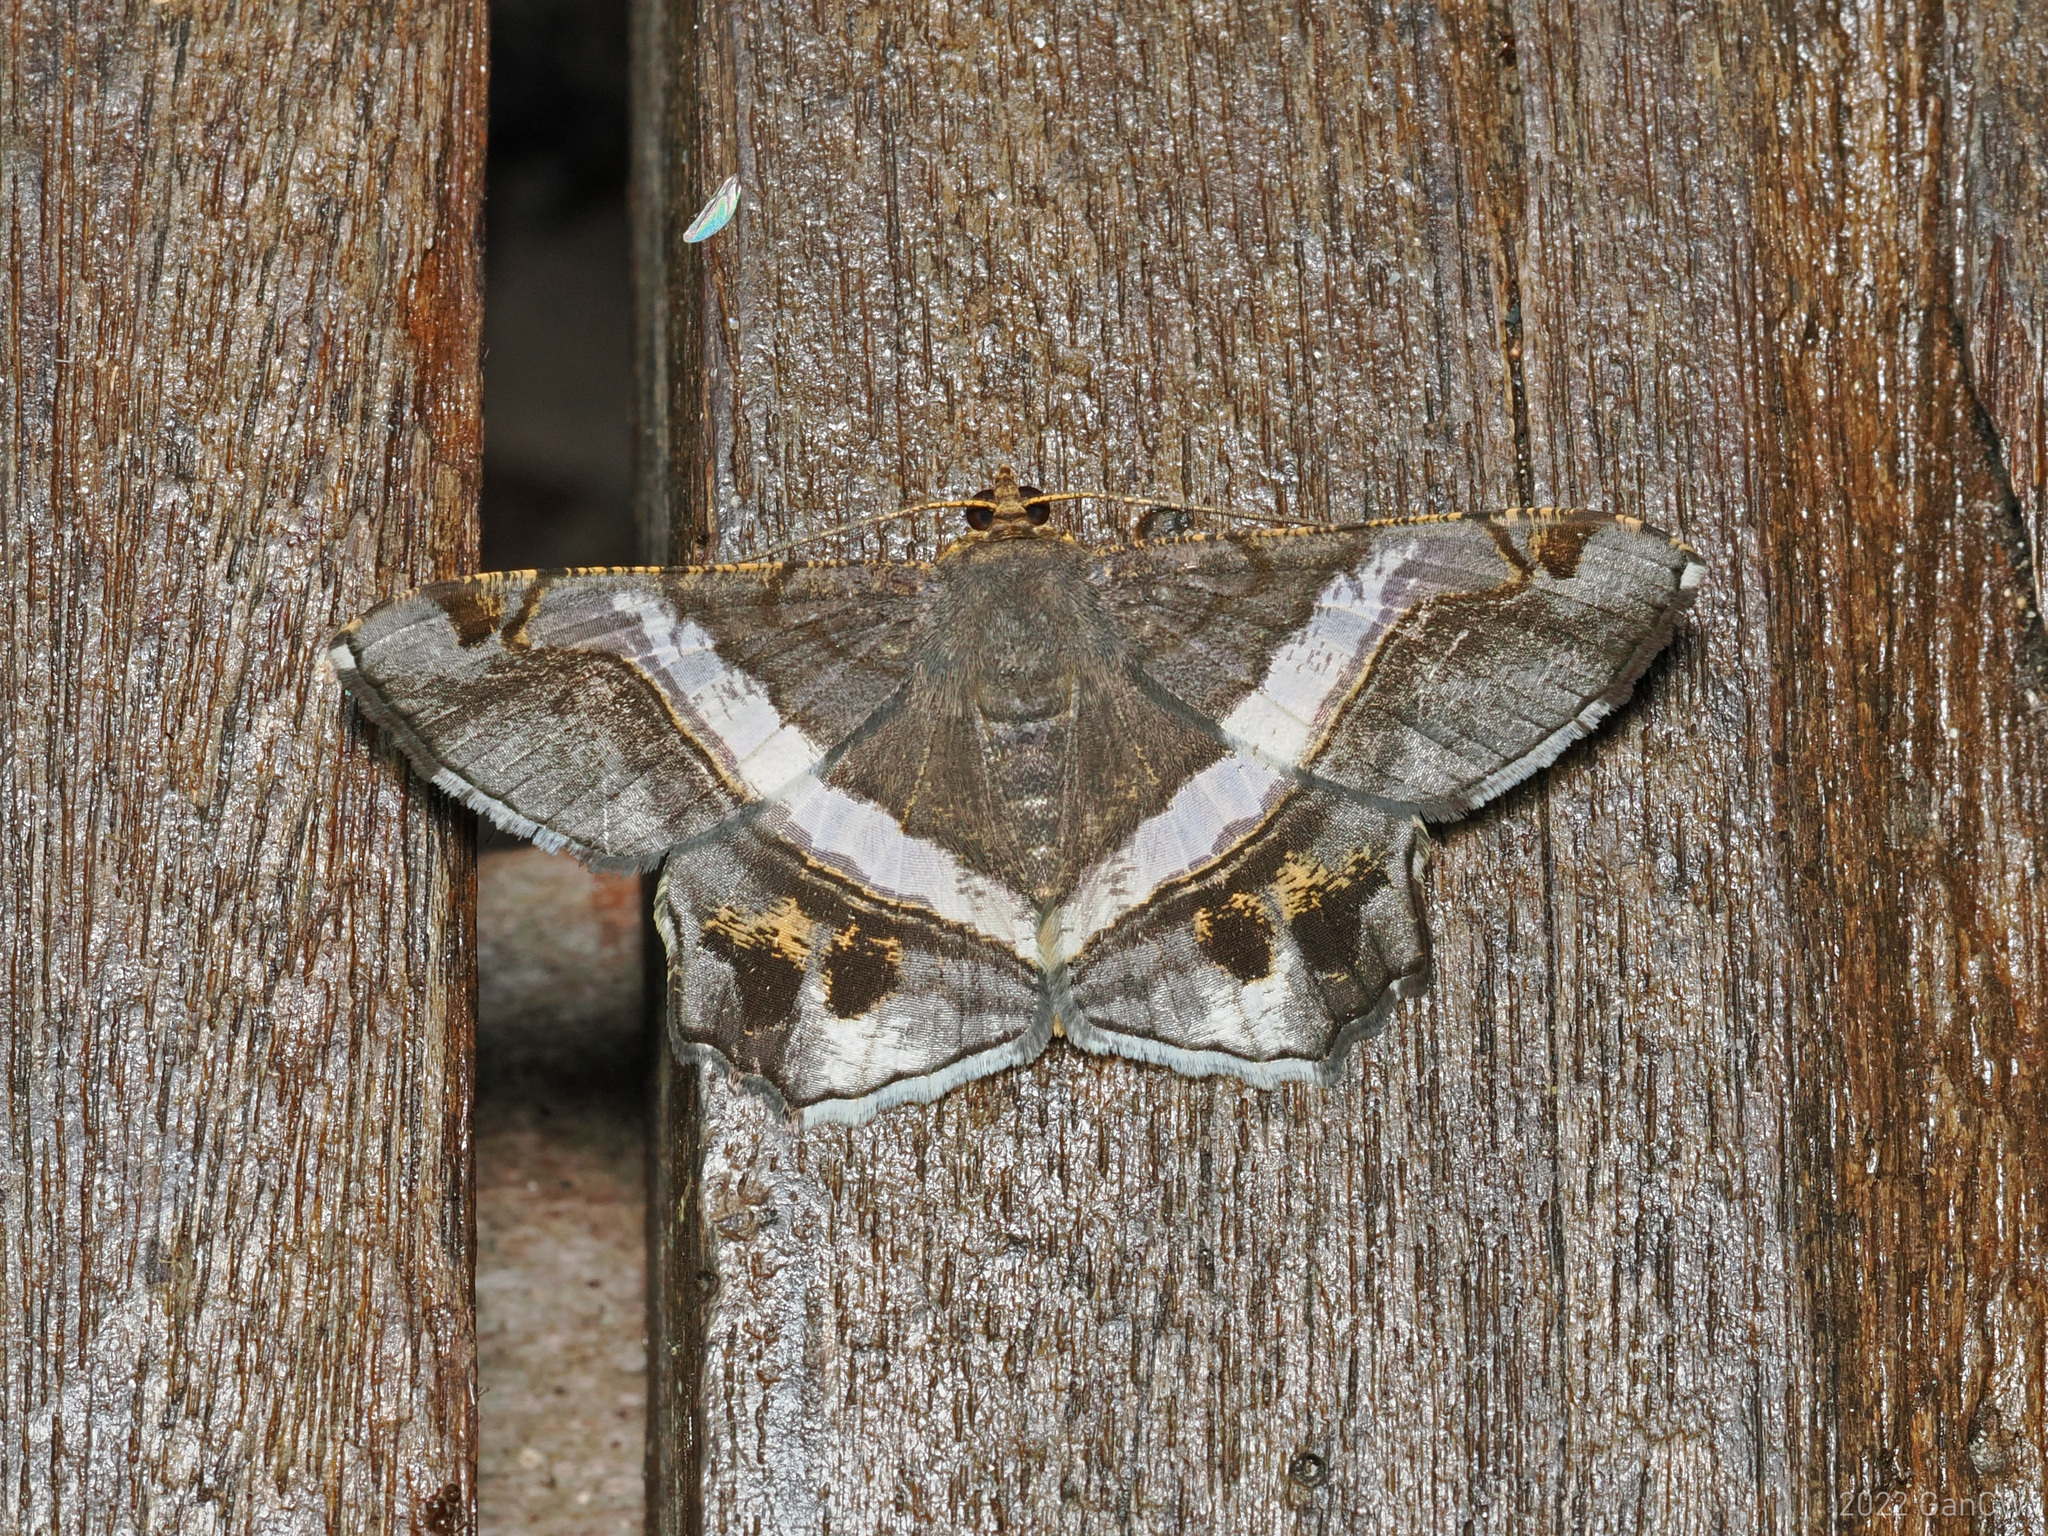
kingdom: Animalia
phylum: Arthropoda
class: Insecta
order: Lepidoptera
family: Geometridae
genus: Chiasmia
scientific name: Chiasmia nora
